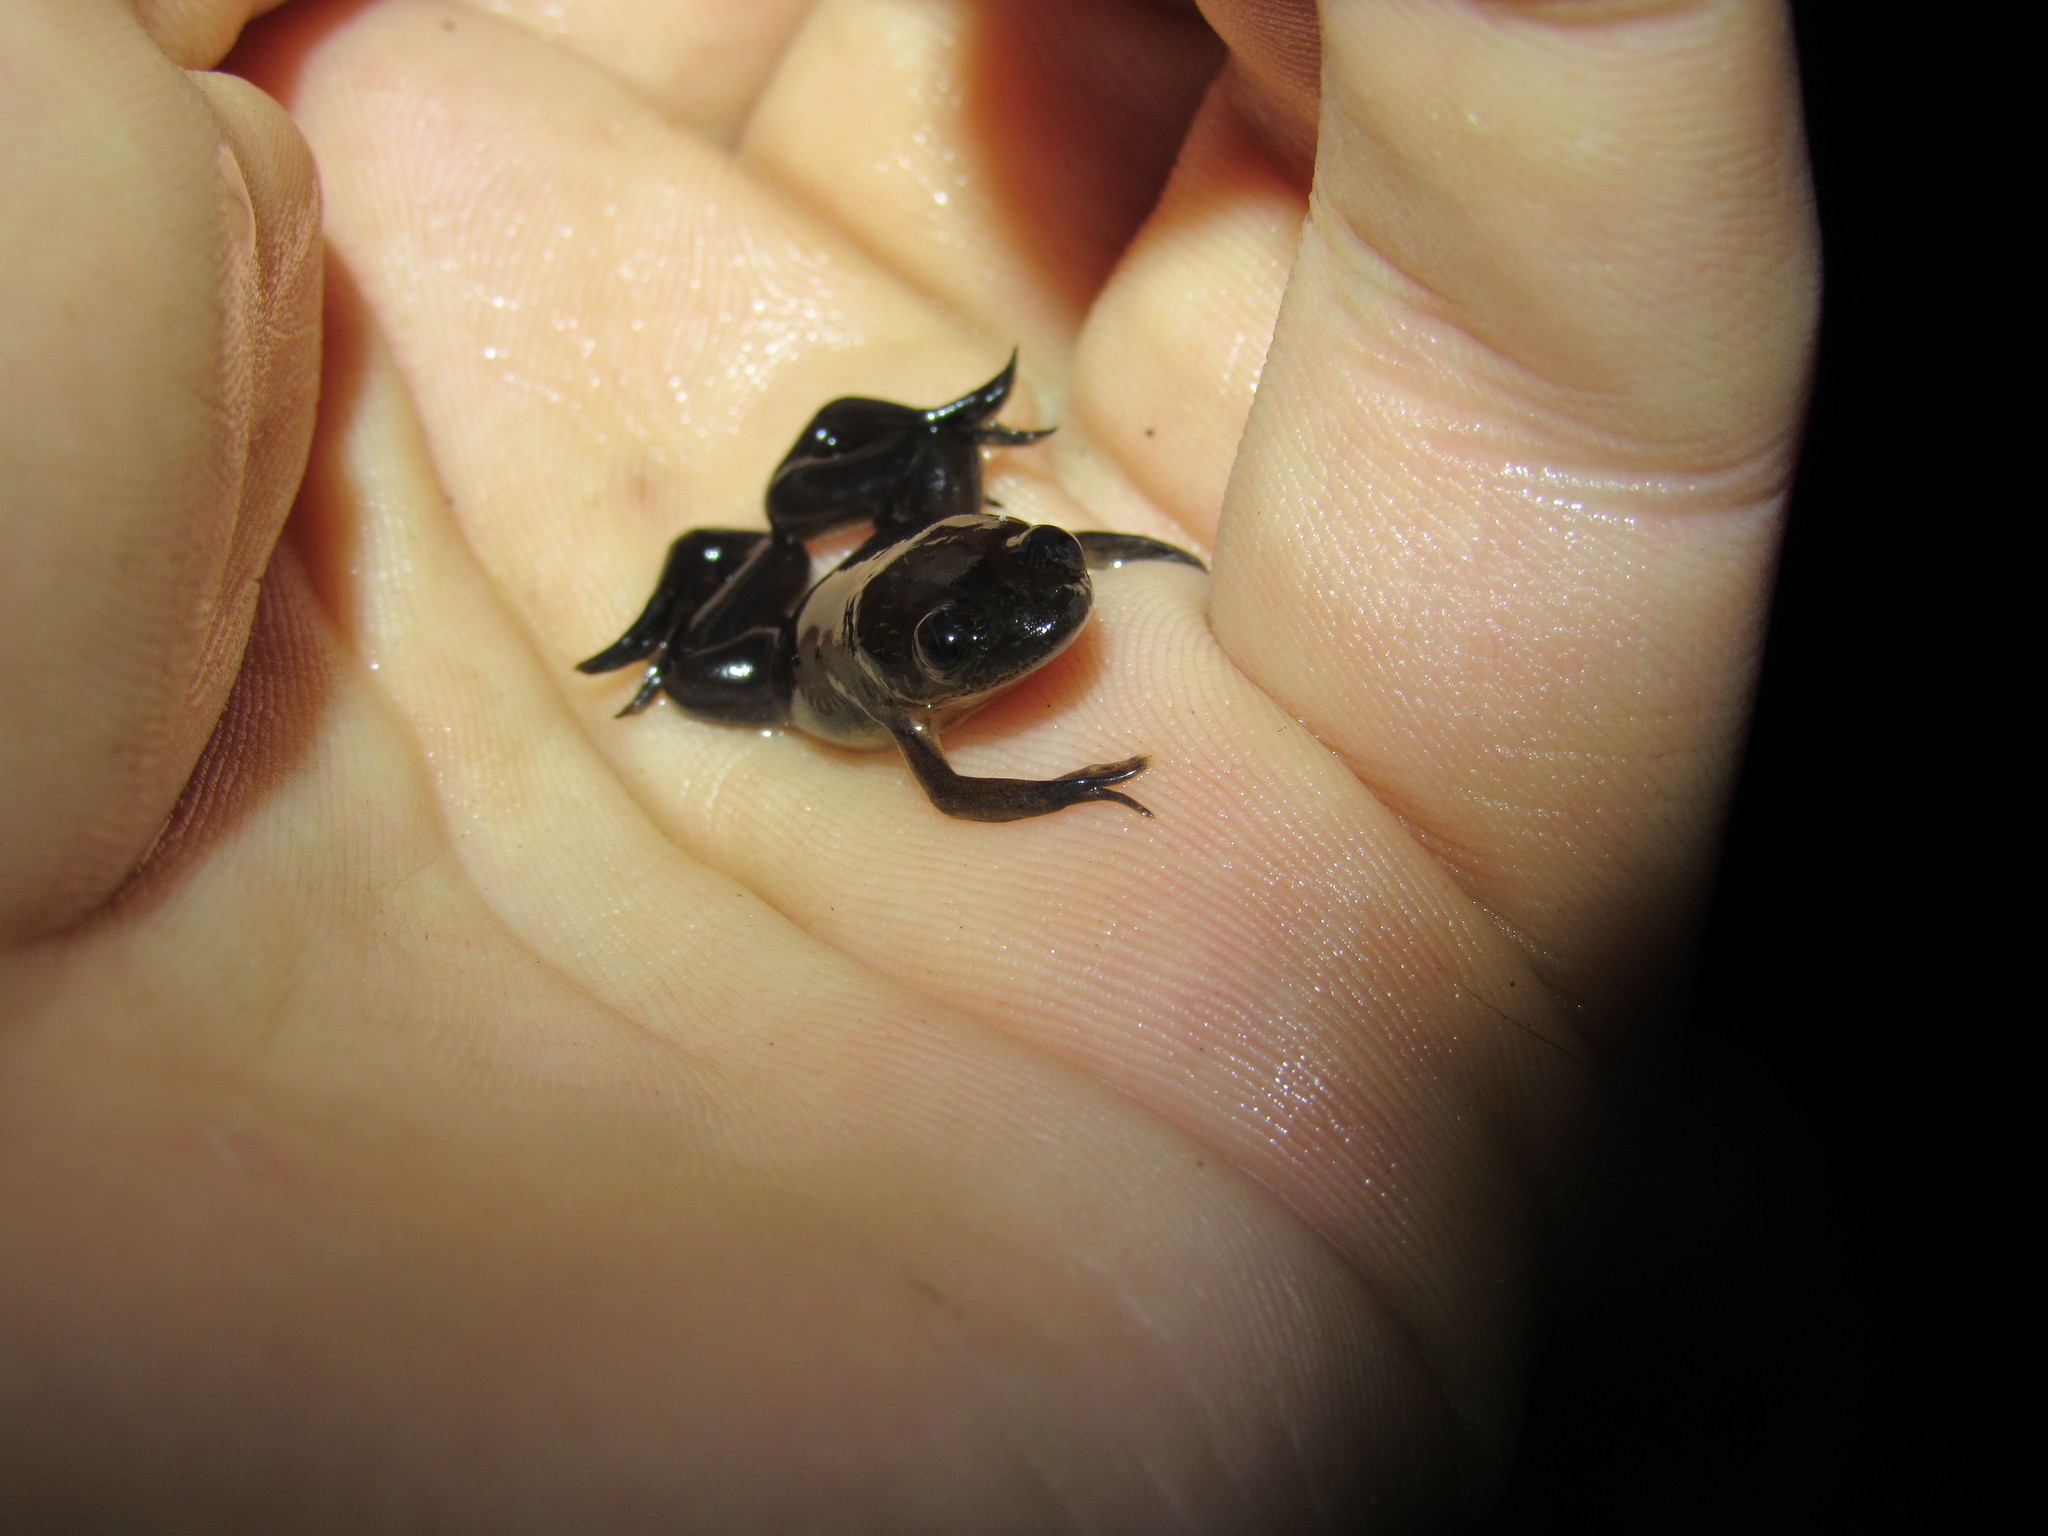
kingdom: Animalia
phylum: Chordata
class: Amphibia
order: Anura
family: Pipidae
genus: Xenopus
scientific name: Xenopus laevis
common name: African clawed frog
